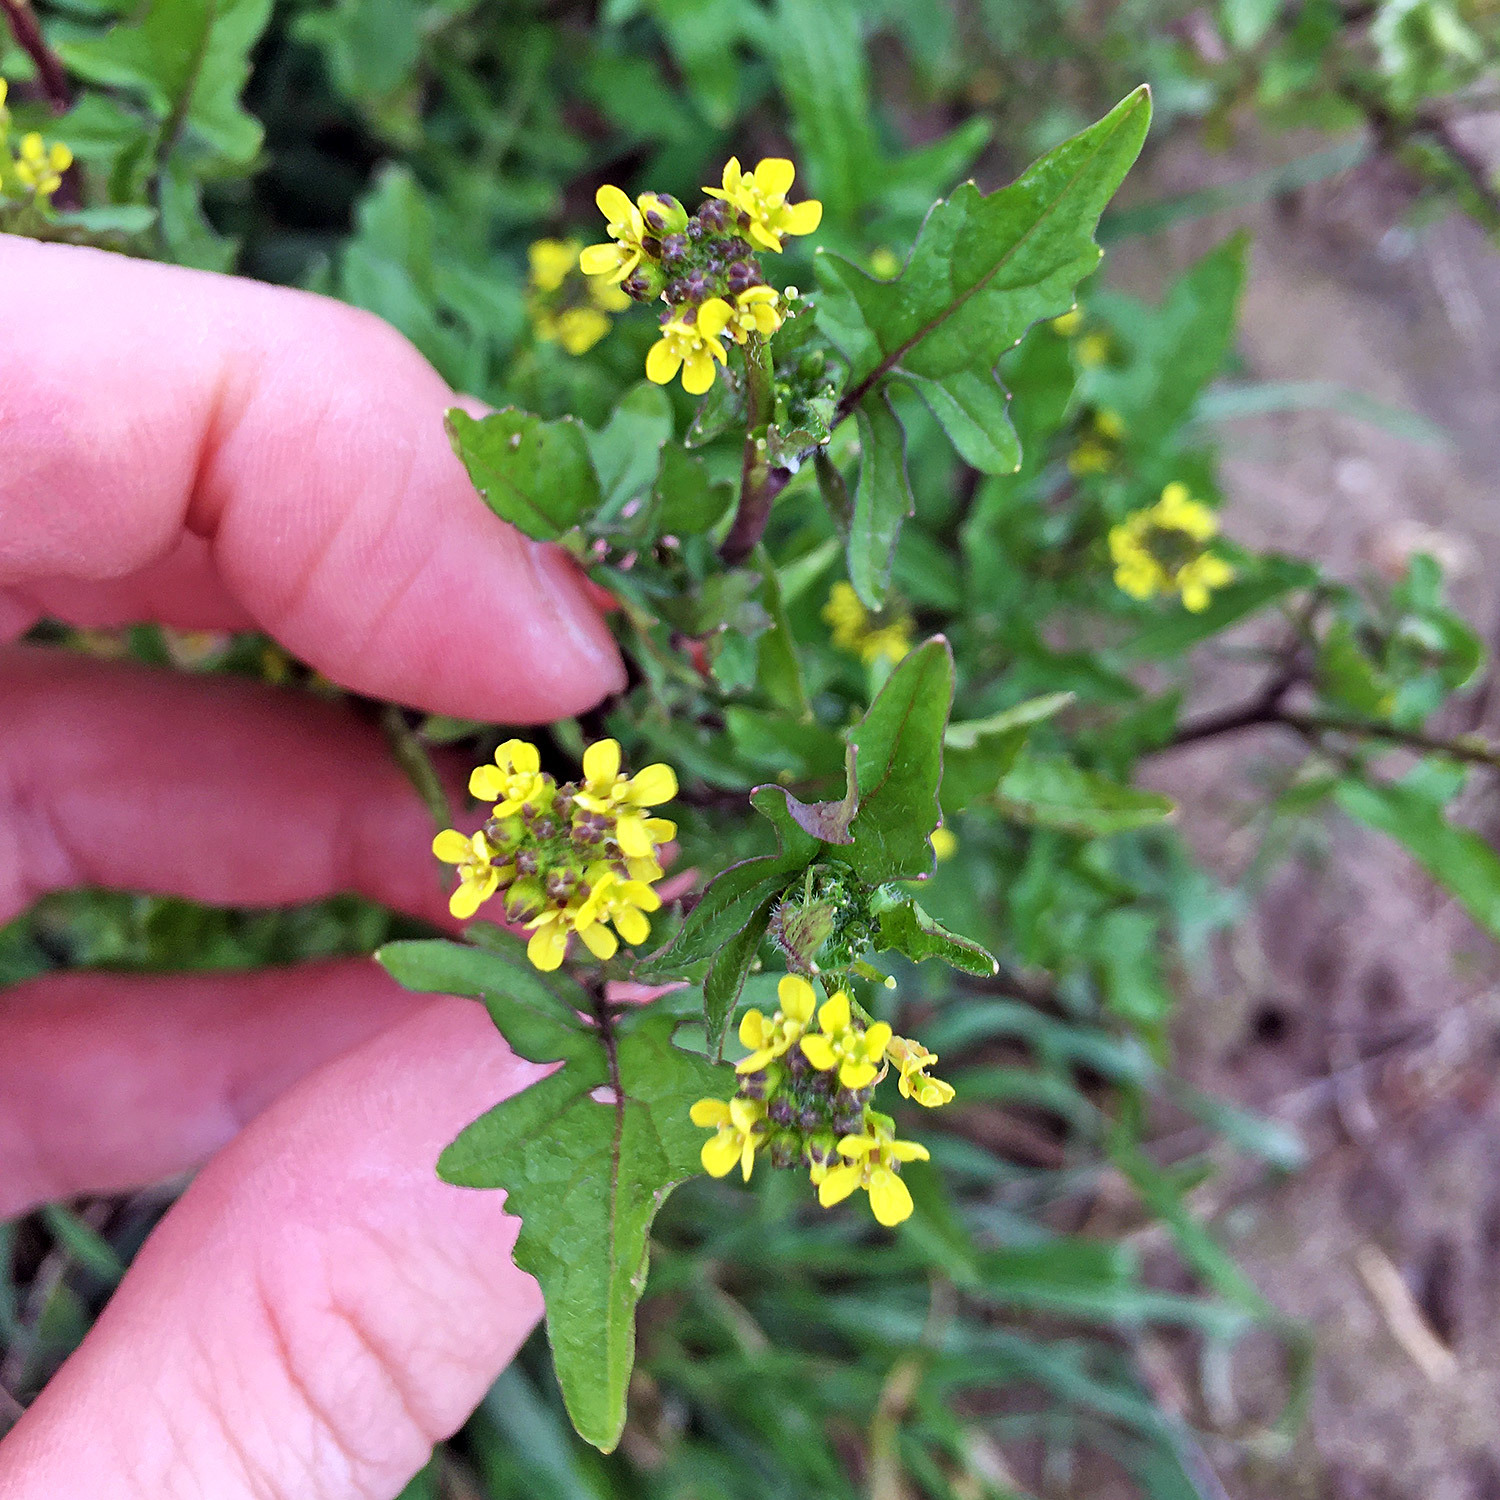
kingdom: Plantae
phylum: Tracheophyta
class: Magnoliopsida
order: Brassicales
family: Brassicaceae
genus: Sisymbrium
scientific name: Sisymbrium officinale
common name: Hedge mustard
